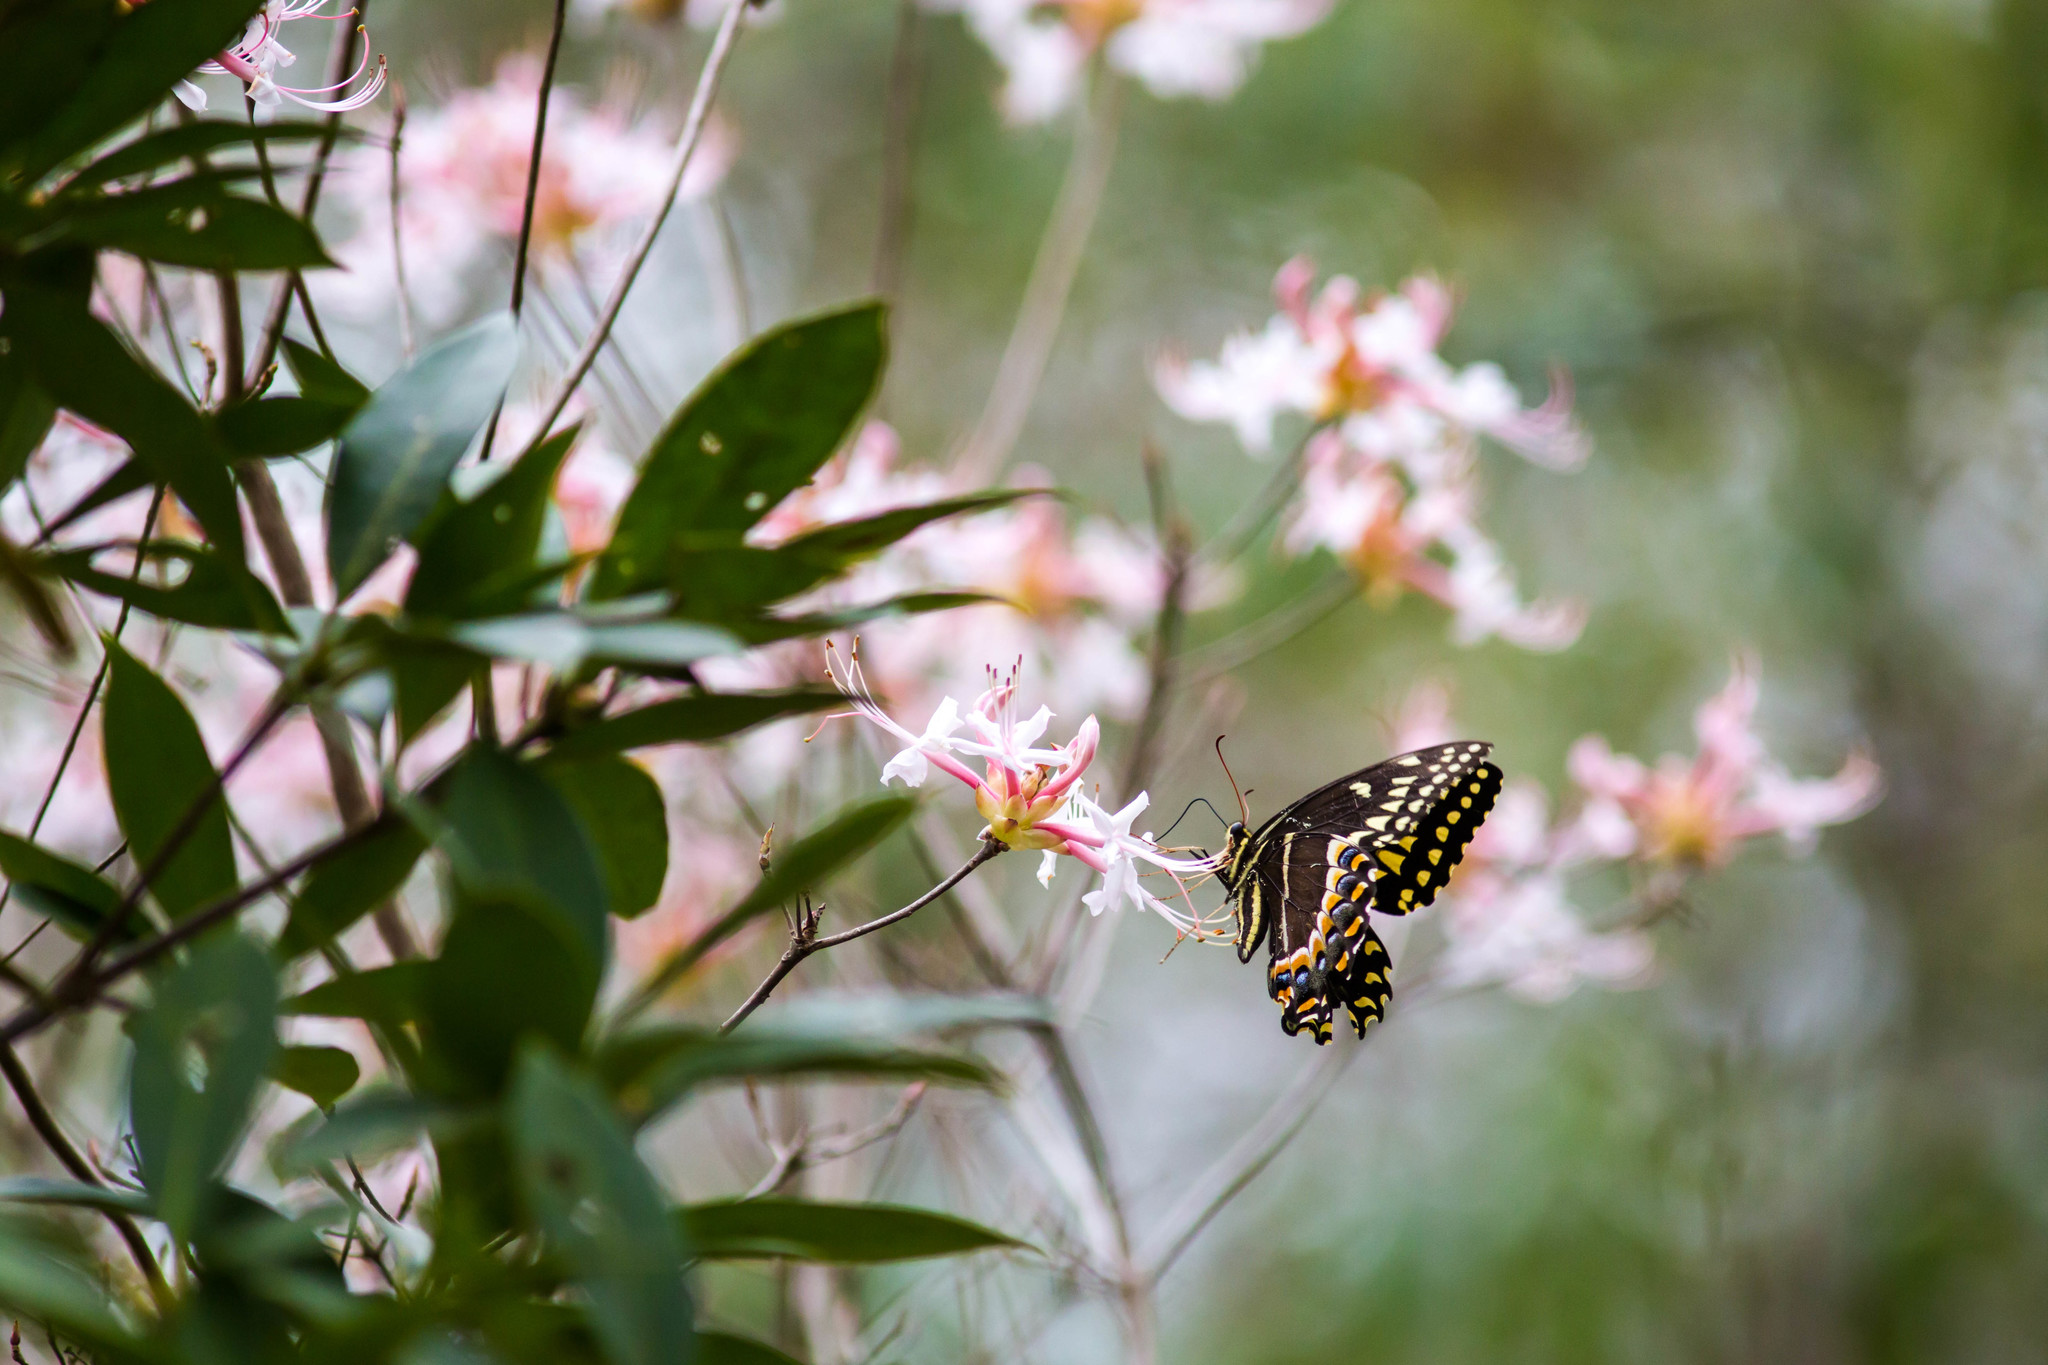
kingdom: Animalia
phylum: Arthropoda
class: Insecta
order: Lepidoptera
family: Papilionidae
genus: Papilio
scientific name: Papilio palamedes
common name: Palamedes swallowtail
